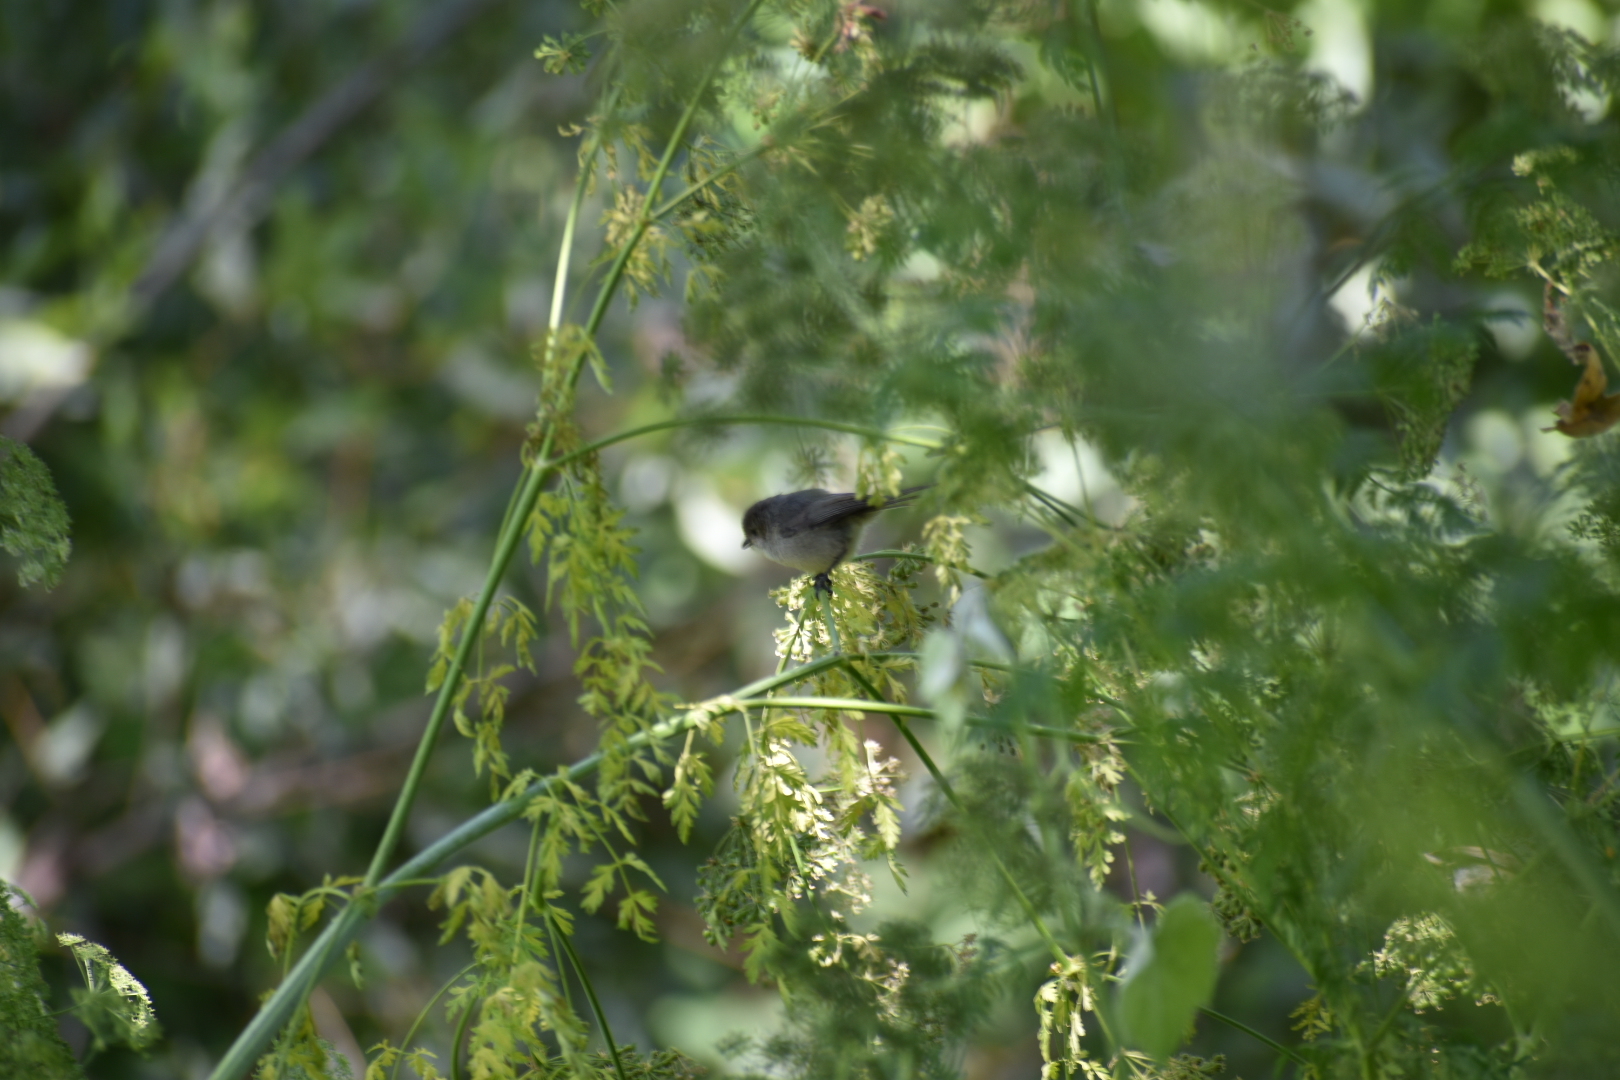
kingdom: Animalia
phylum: Chordata
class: Aves
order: Passeriformes
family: Aegithalidae
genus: Psaltriparus
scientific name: Psaltriparus minimus
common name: American bushtit
